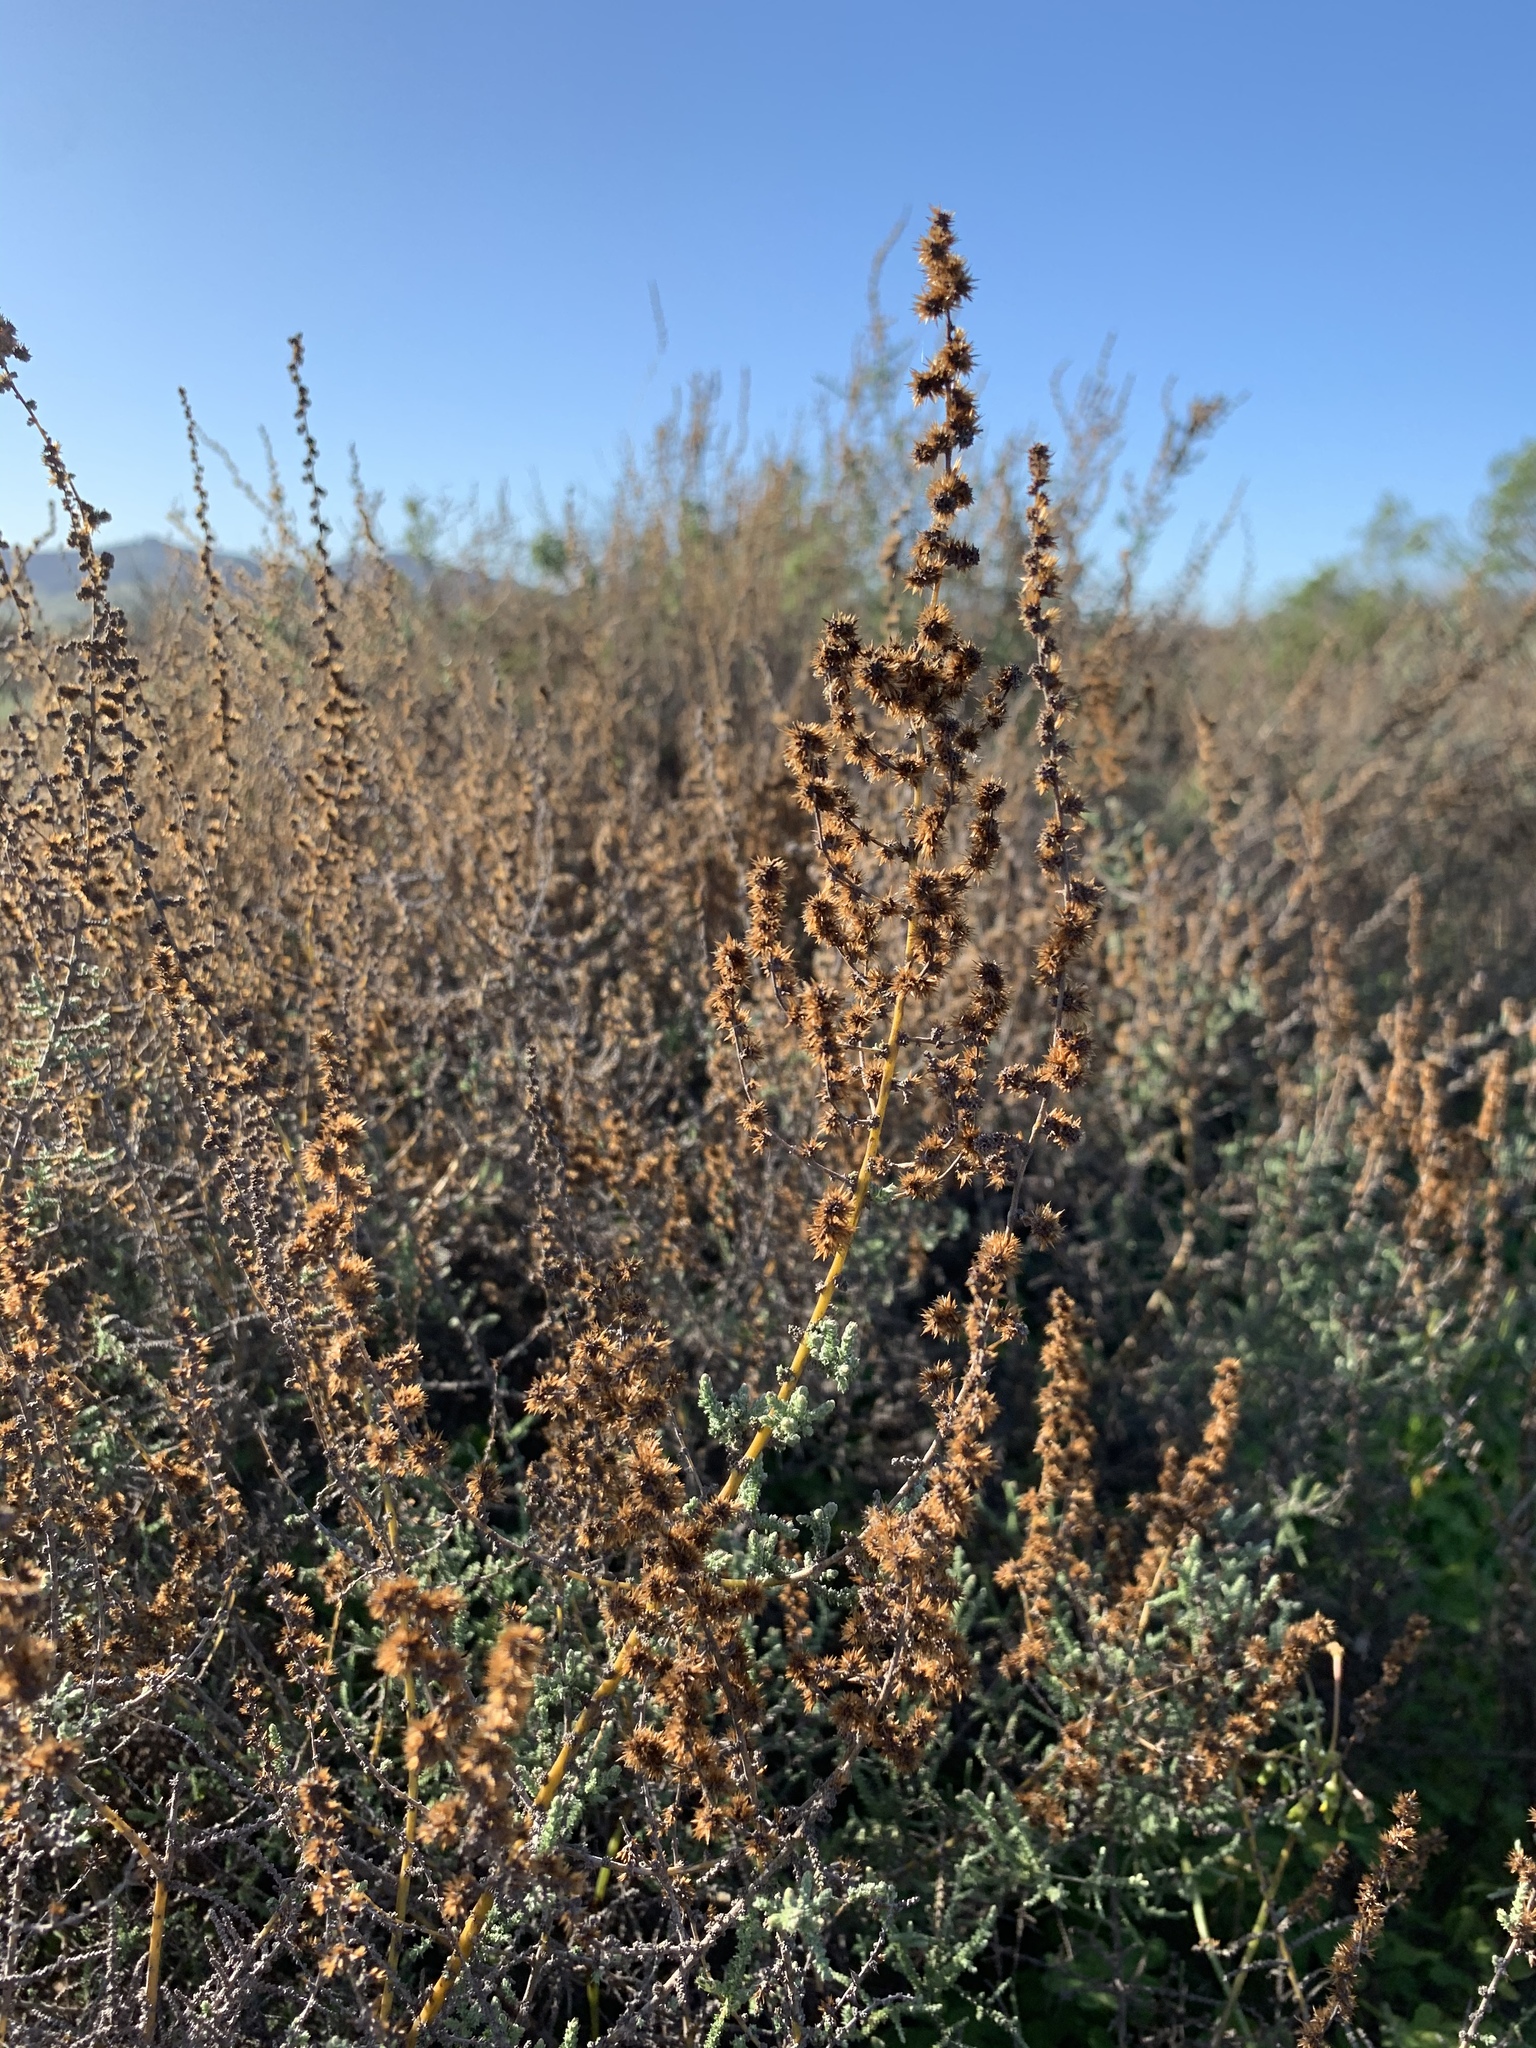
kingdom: Plantae
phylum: Tracheophyta
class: Magnoliopsida
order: Asterales
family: Asteraceae
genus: Seriphium
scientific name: Seriphium plumosum
